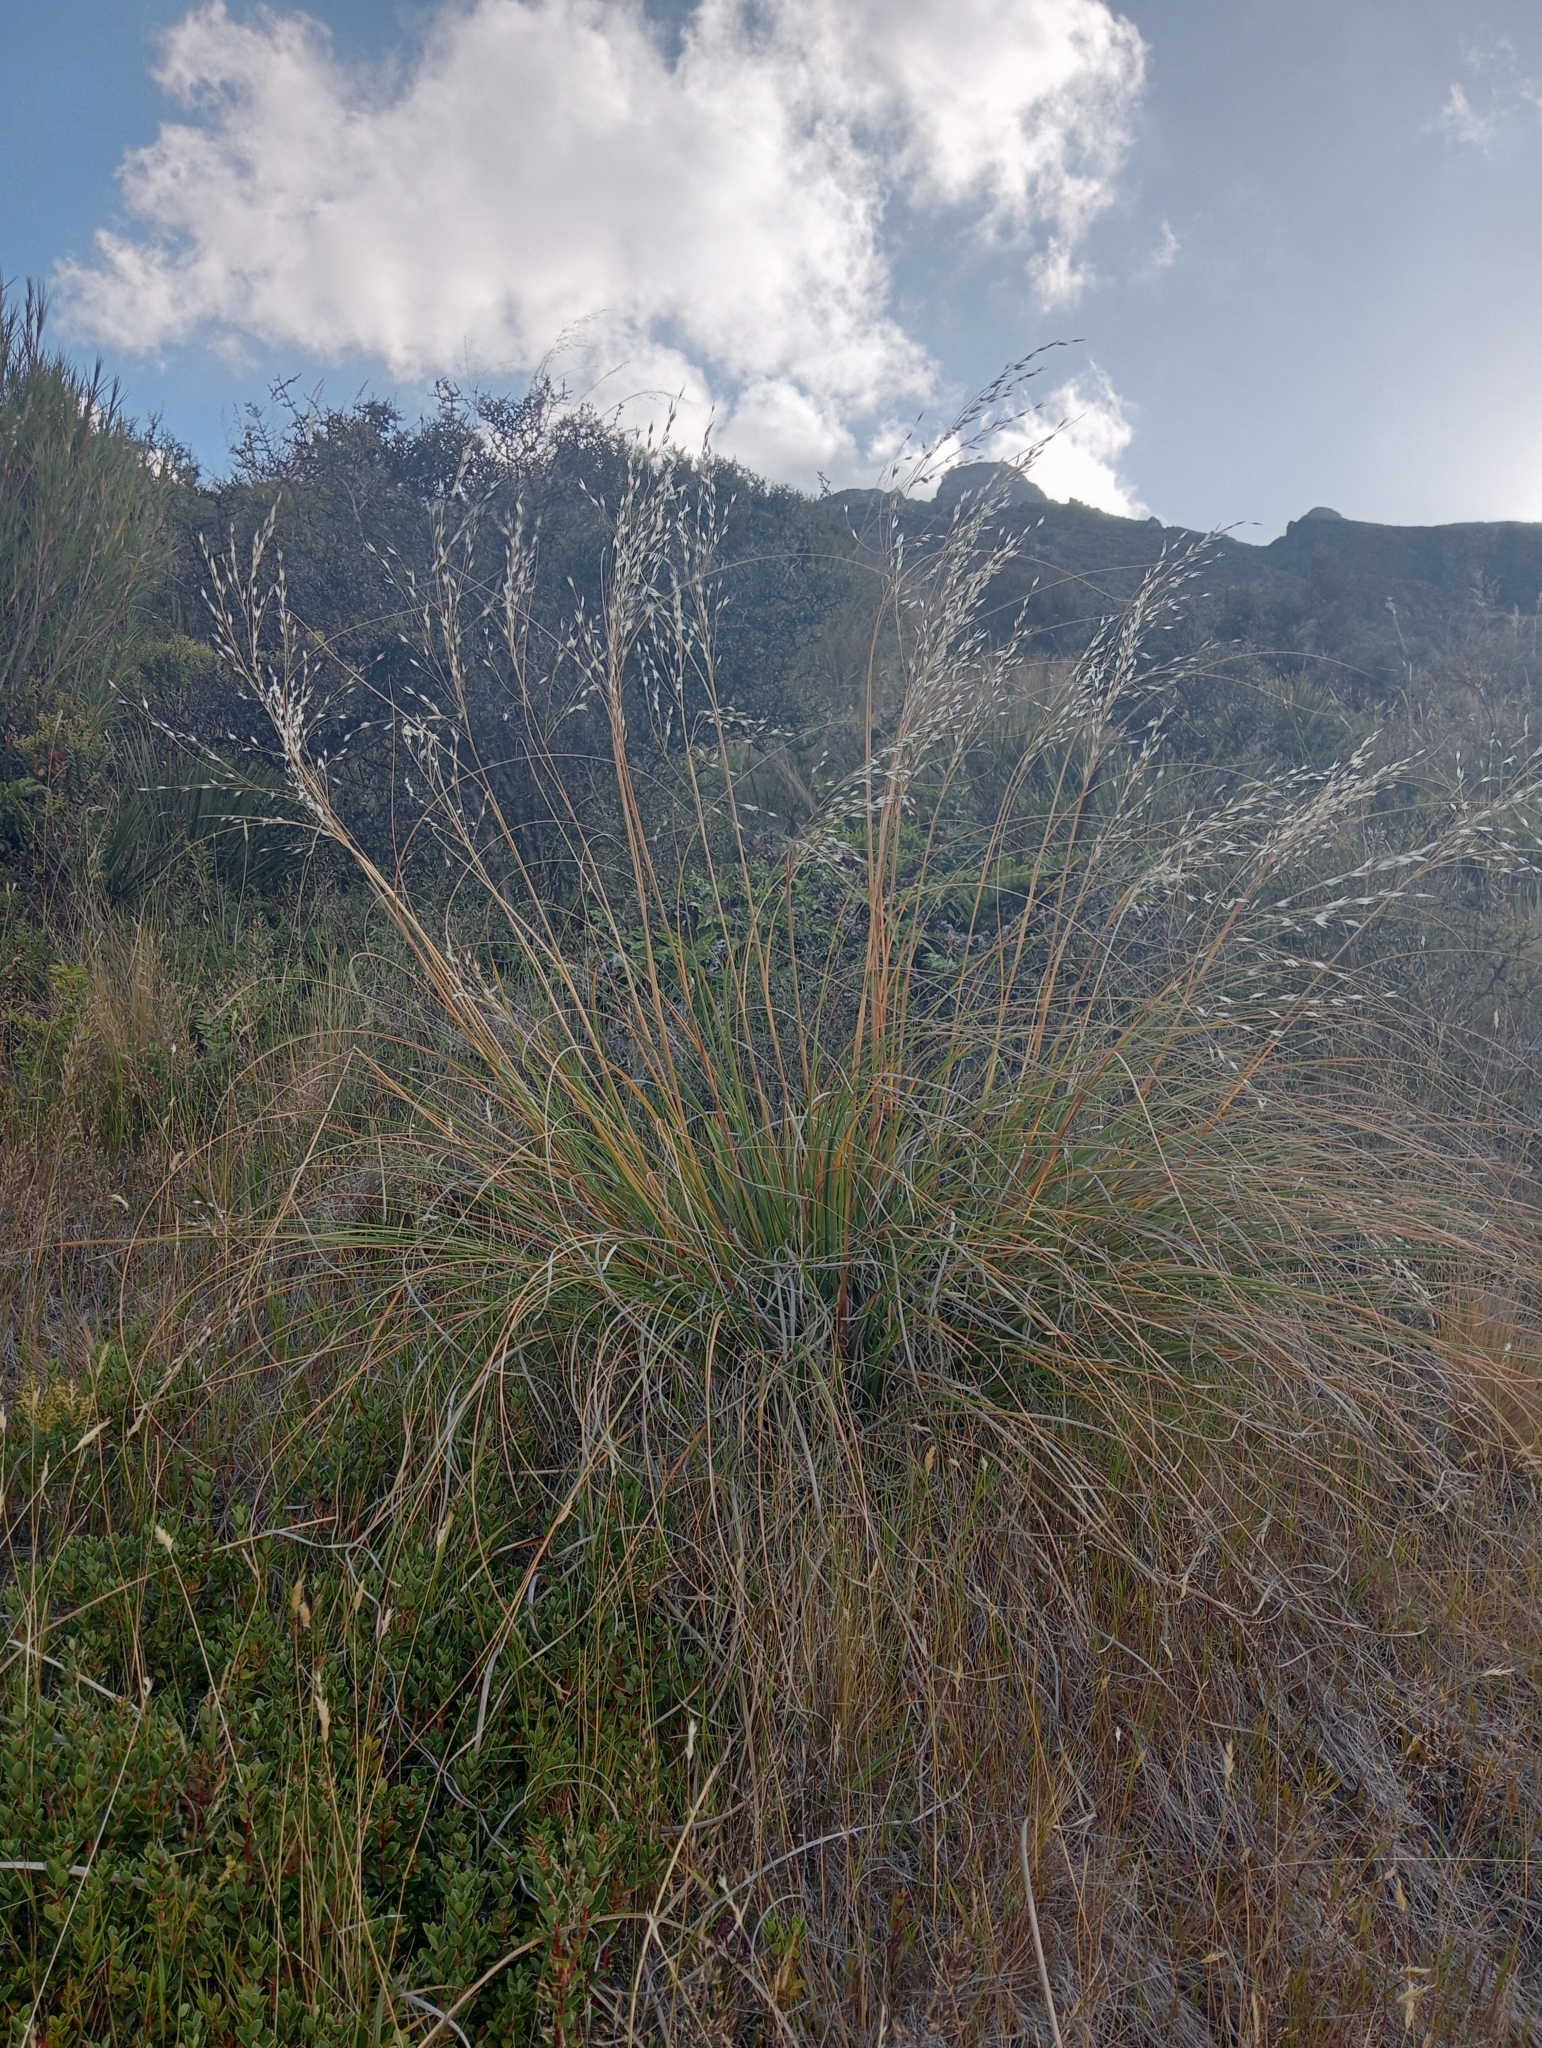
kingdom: Plantae
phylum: Tracheophyta
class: Liliopsida
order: Poales
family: Poaceae
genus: Chionochloa
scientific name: Chionochloa rigida
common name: Narrow leaved snow tussock
